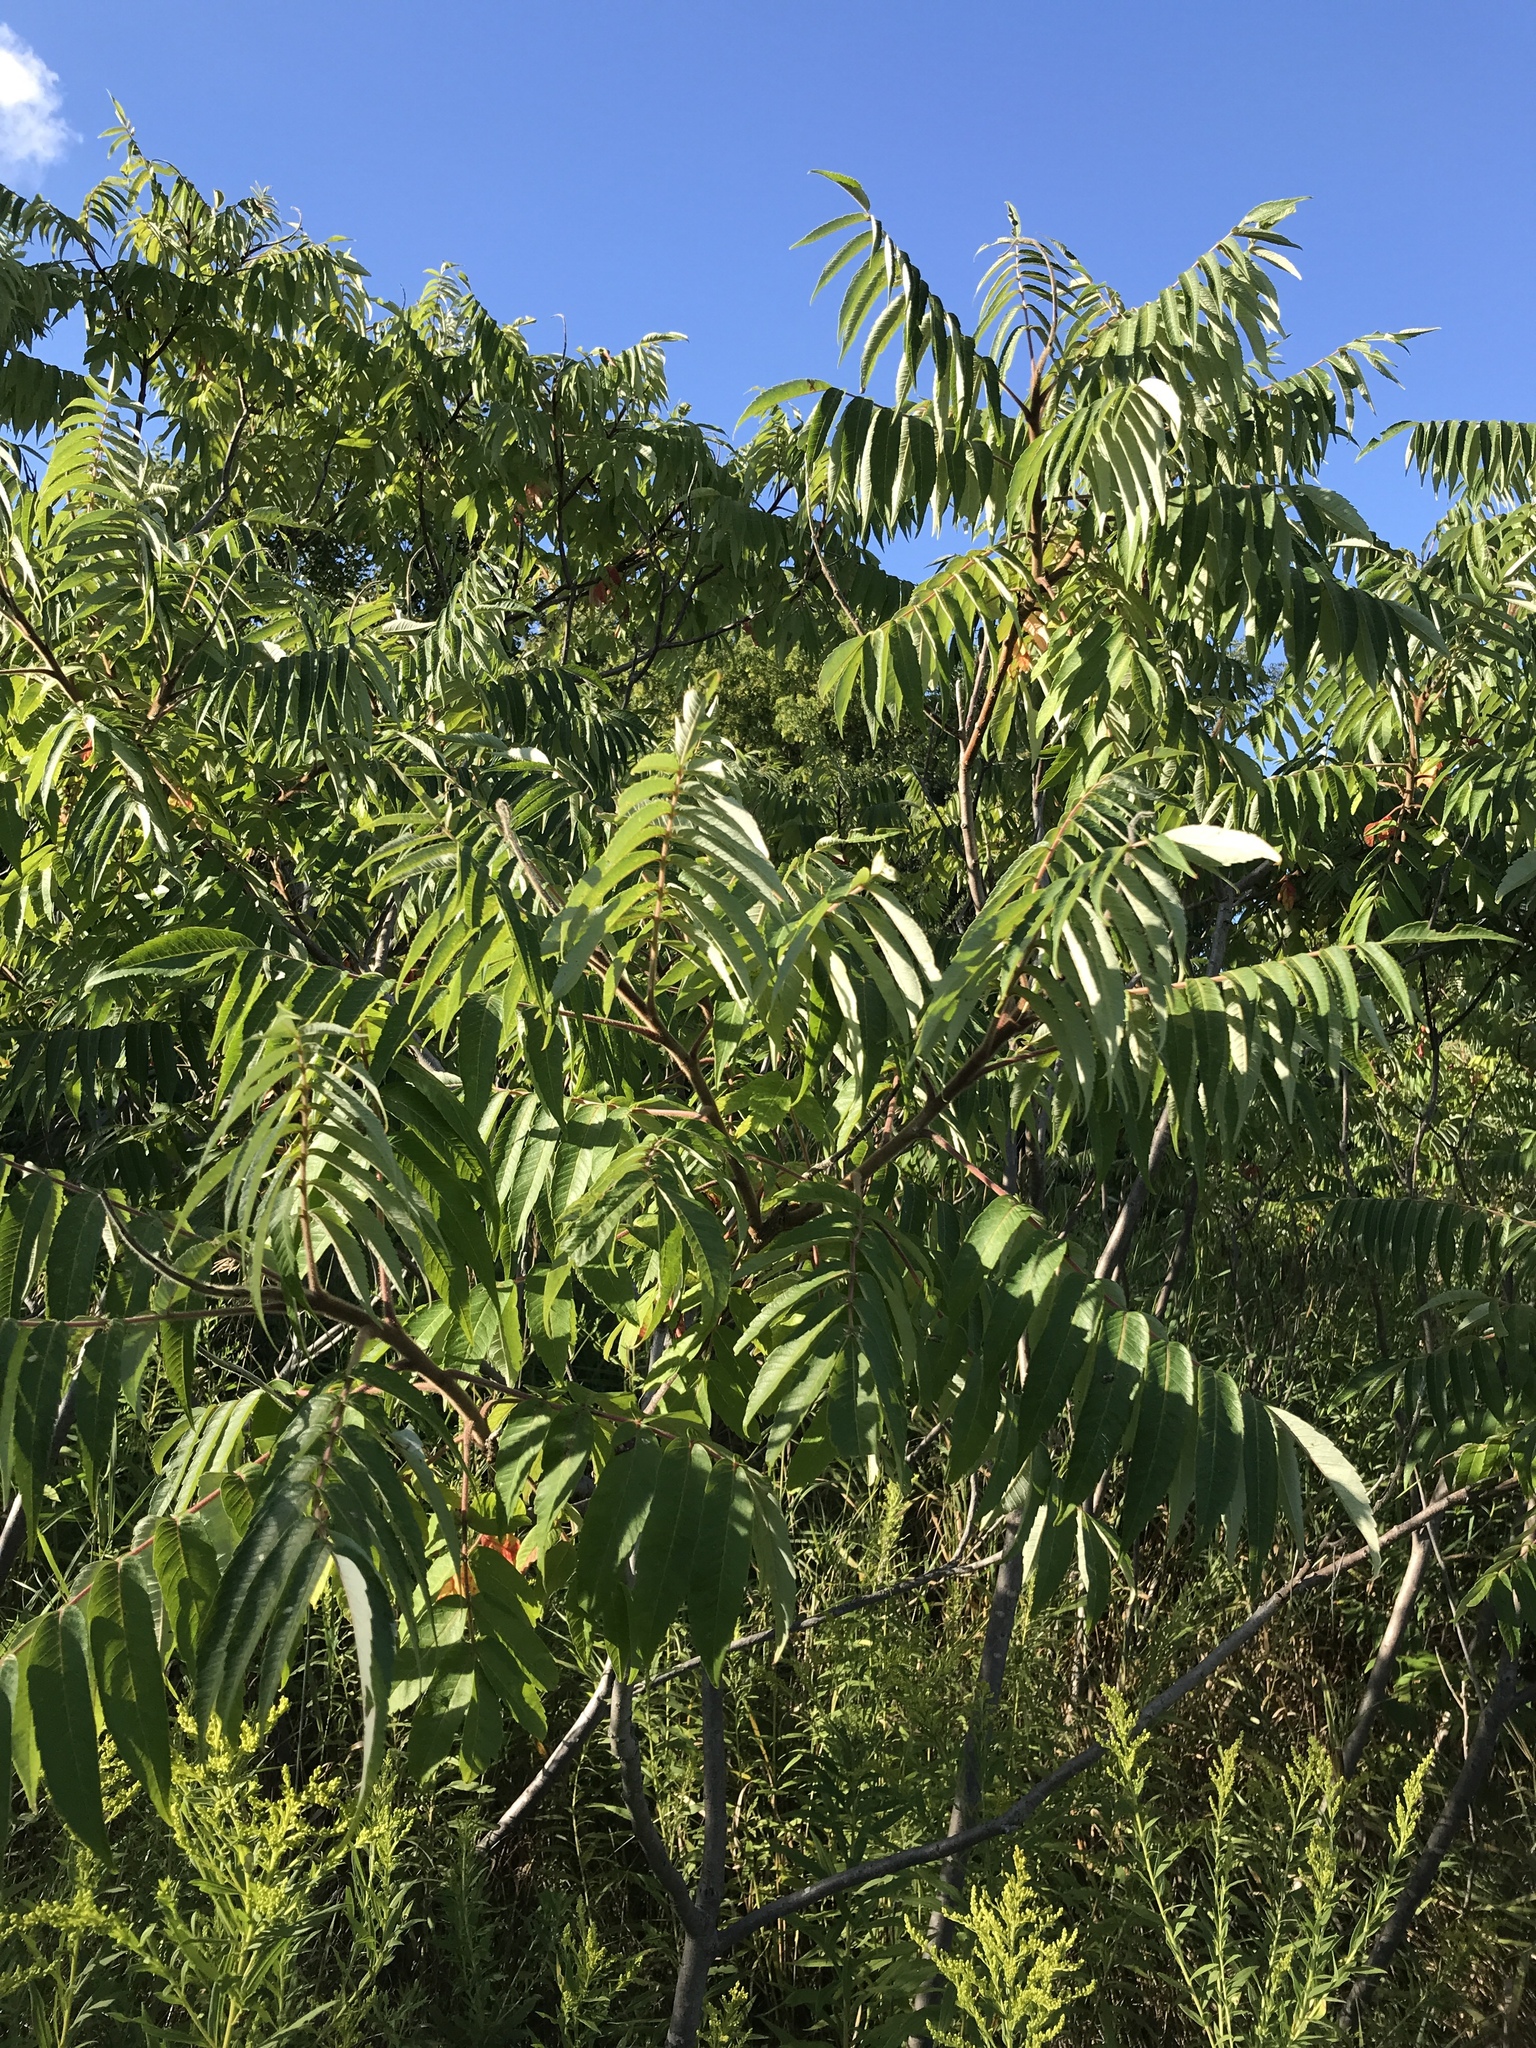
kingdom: Plantae
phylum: Tracheophyta
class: Magnoliopsida
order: Sapindales
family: Anacardiaceae
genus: Rhus
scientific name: Rhus typhina
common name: Staghorn sumac
